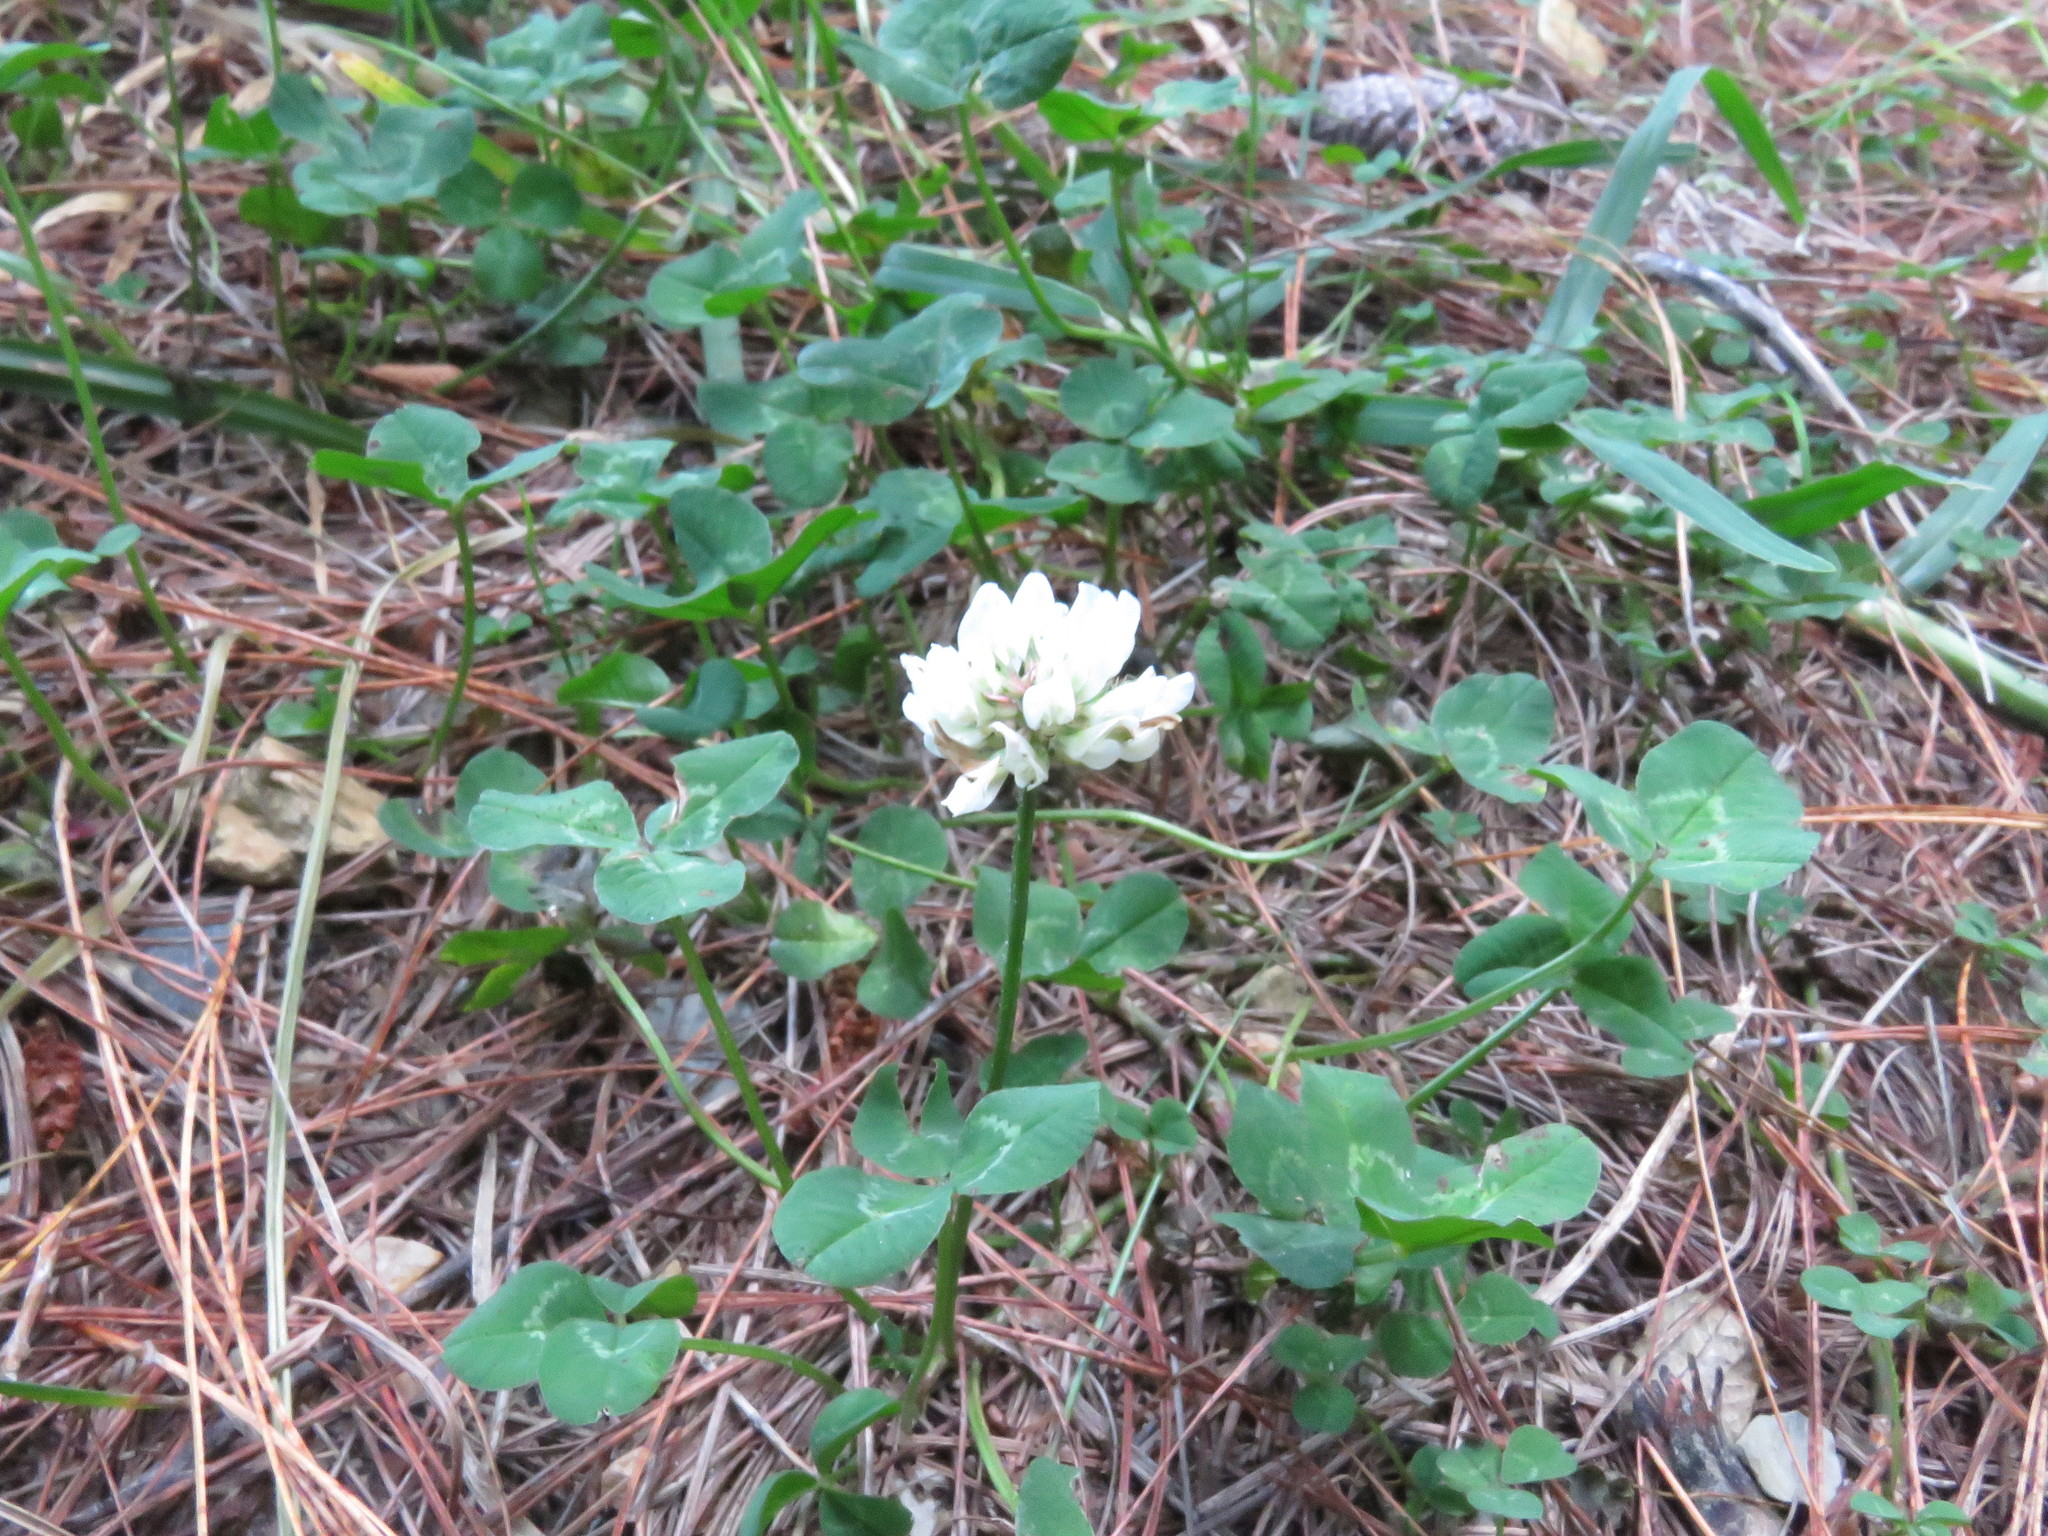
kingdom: Plantae
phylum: Tracheophyta
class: Magnoliopsida
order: Fabales
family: Fabaceae
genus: Trifolium
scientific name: Trifolium repens
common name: White clover
